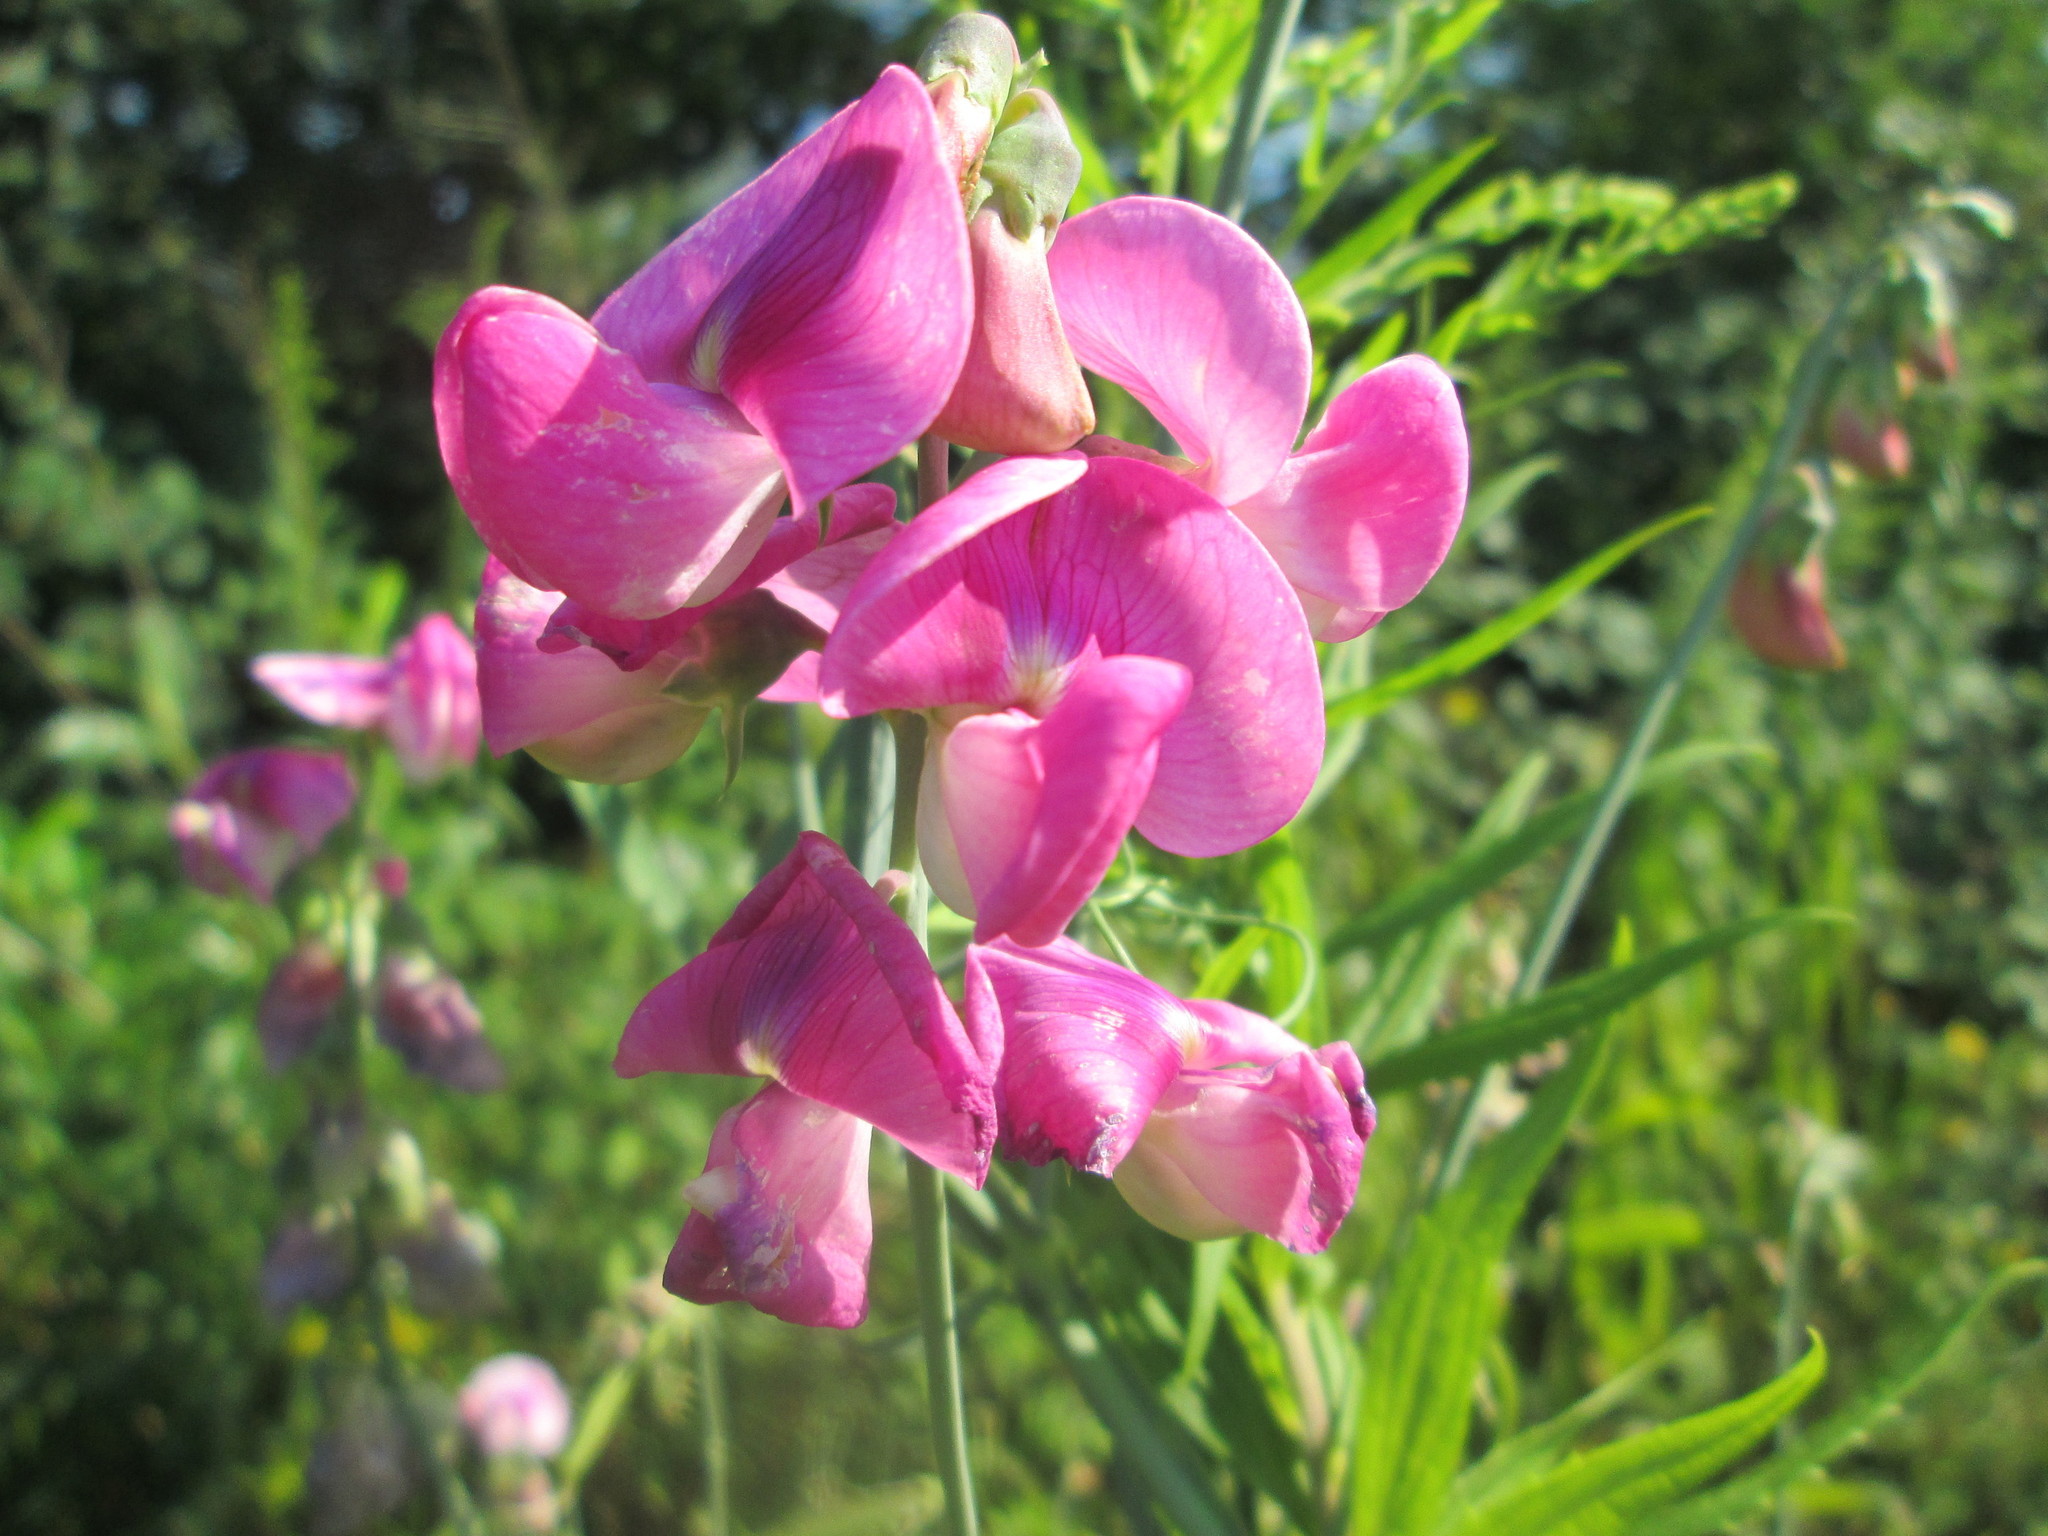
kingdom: Plantae
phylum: Tracheophyta
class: Magnoliopsida
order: Fabales
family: Fabaceae
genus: Lathyrus
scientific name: Lathyrus latifolius
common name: Perennial pea
